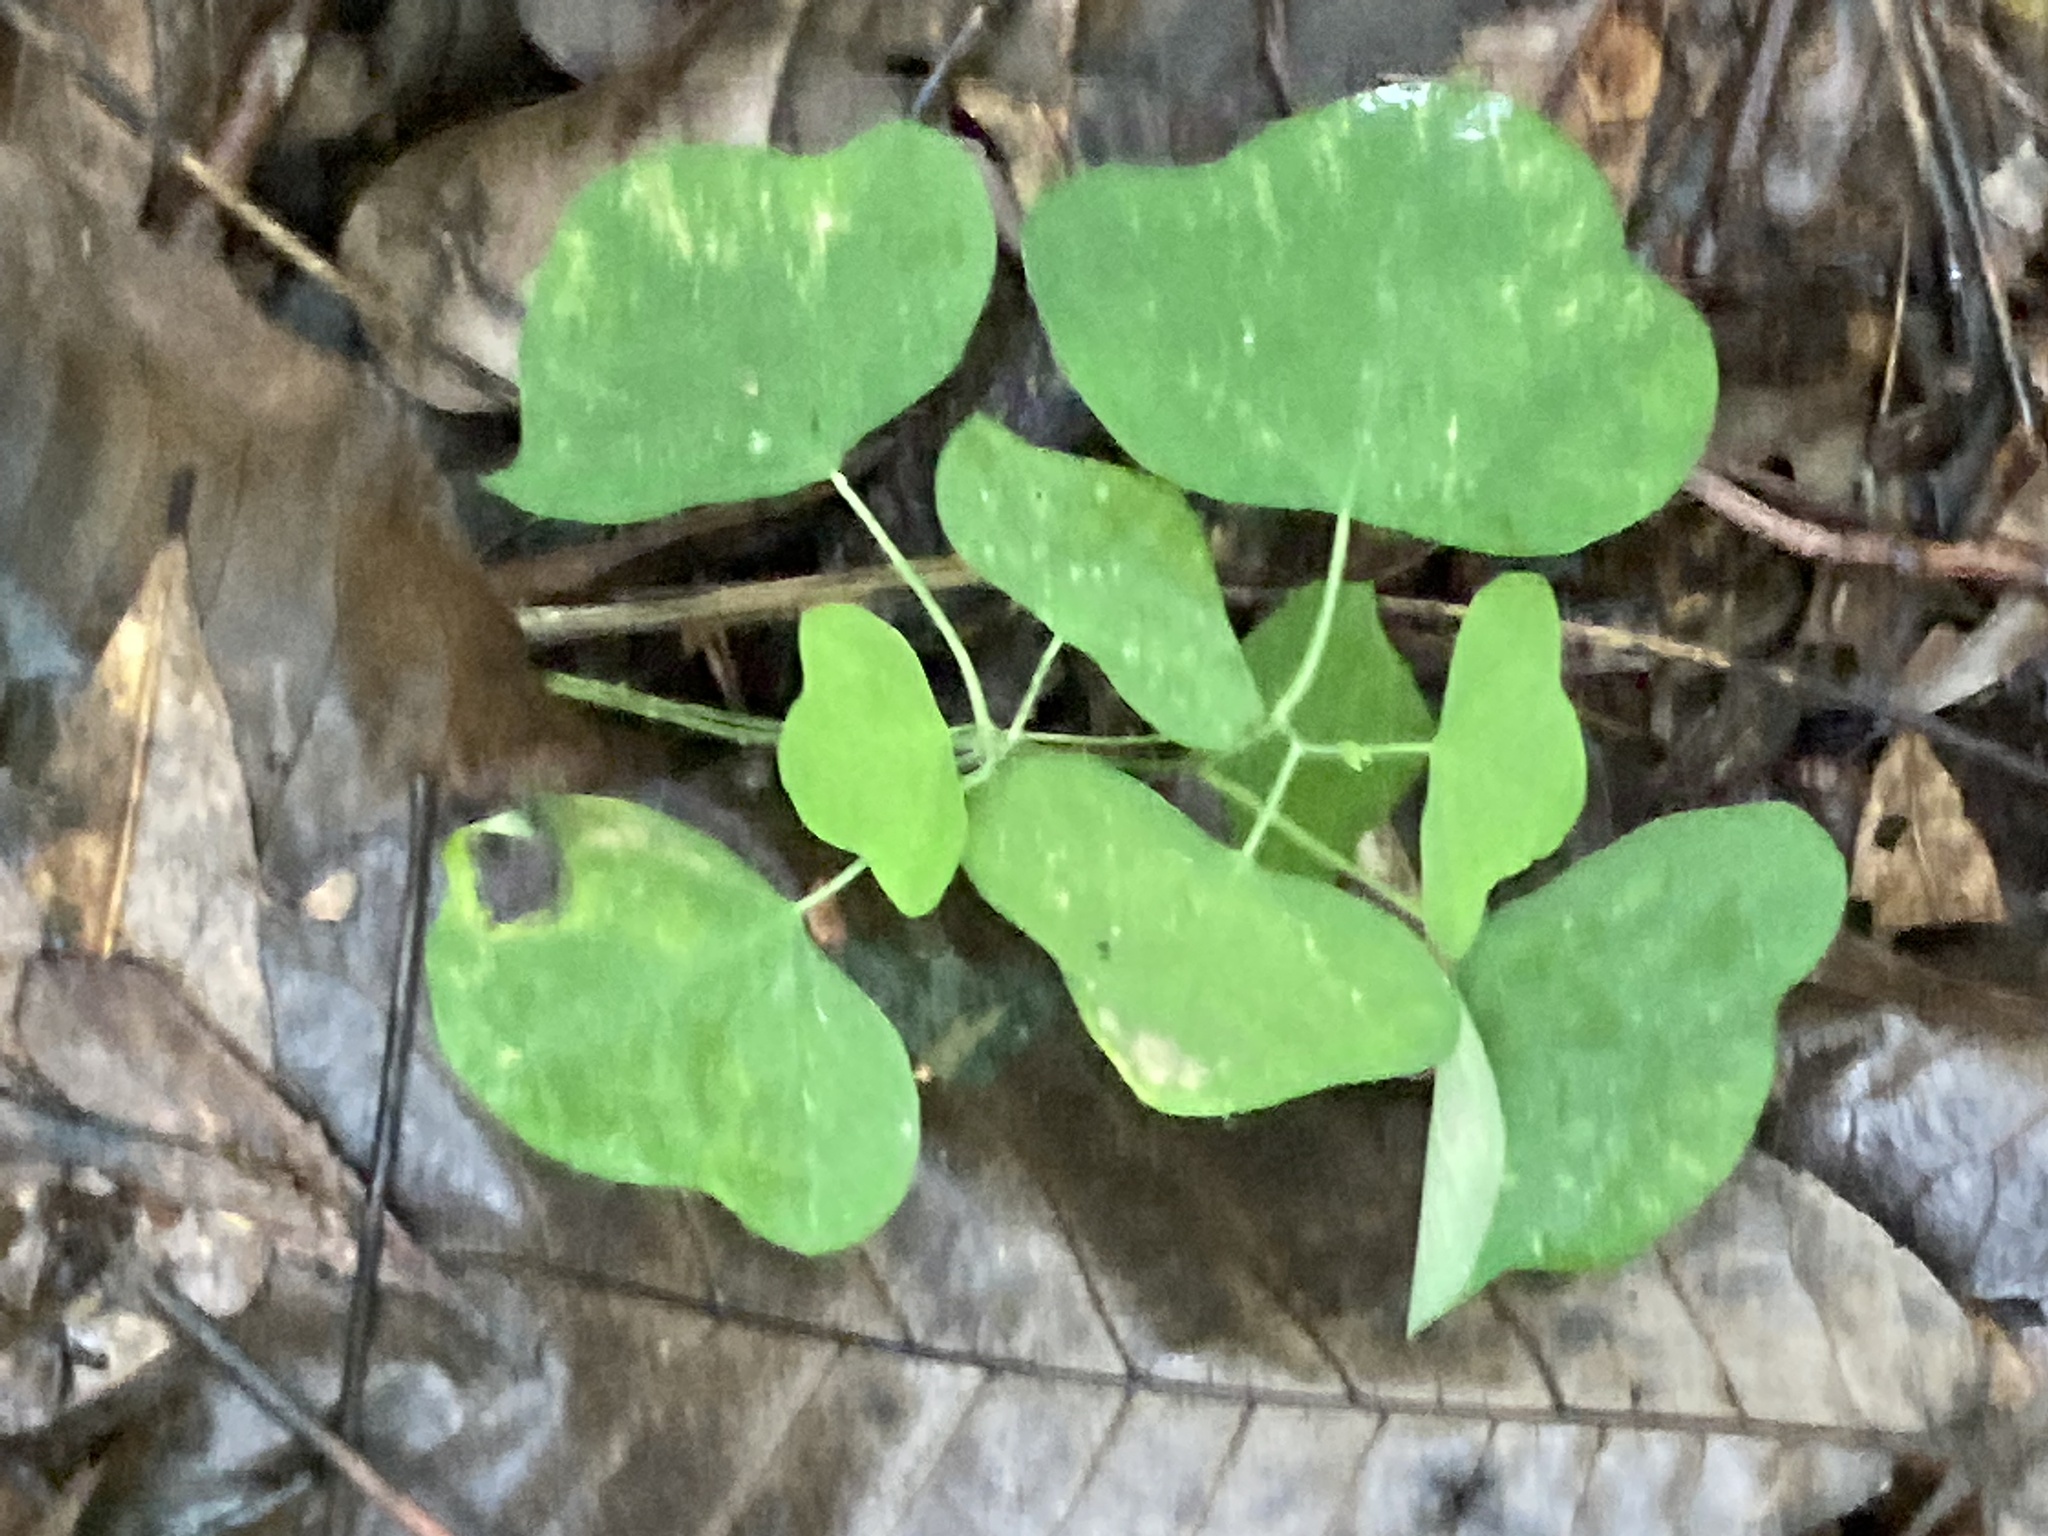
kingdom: Plantae
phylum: Tracheophyta
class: Magnoliopsida
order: Malpighiales
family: Passifloraceae
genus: Passiflora
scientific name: Passiflora lutea
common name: Yellow passionflower
